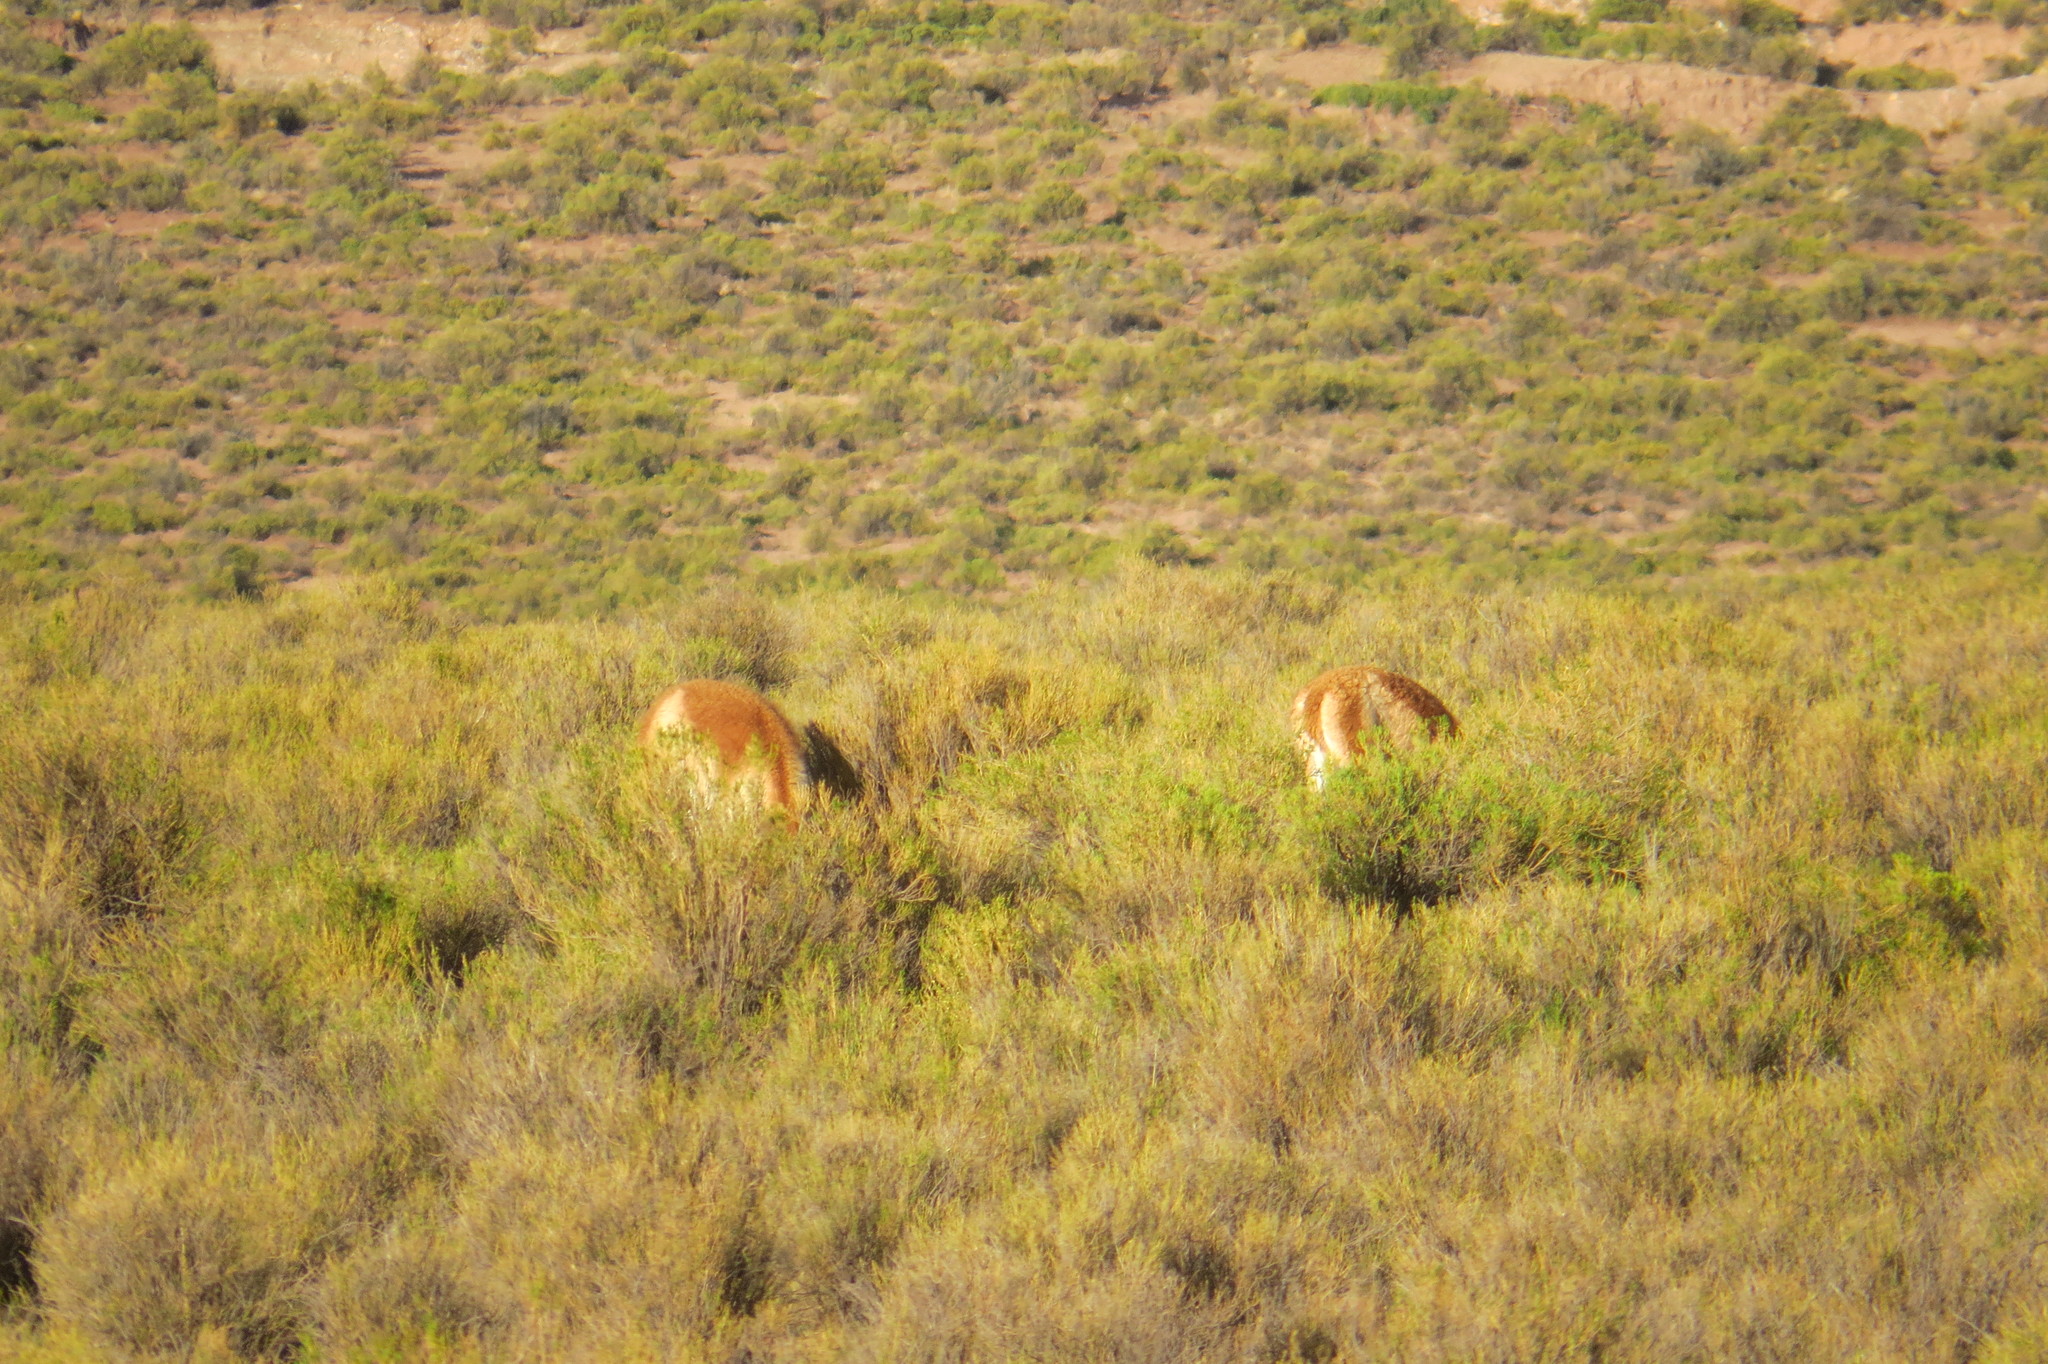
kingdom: Animalia
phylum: Chordata
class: Mammalia
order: Artiodactyla
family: Camelidae
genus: Vicugna
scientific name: Vicugna vicugna
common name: Vicugna
